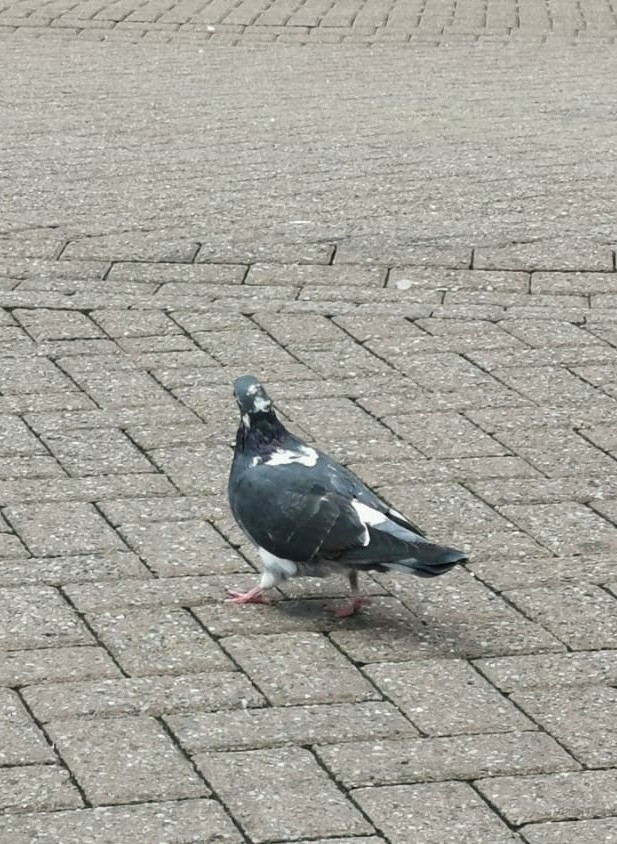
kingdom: Animalia
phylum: Chordata
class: Aves
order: Columbiformes
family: Columbidae
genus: Columba
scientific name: Columba livia
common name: Rock pigeon
